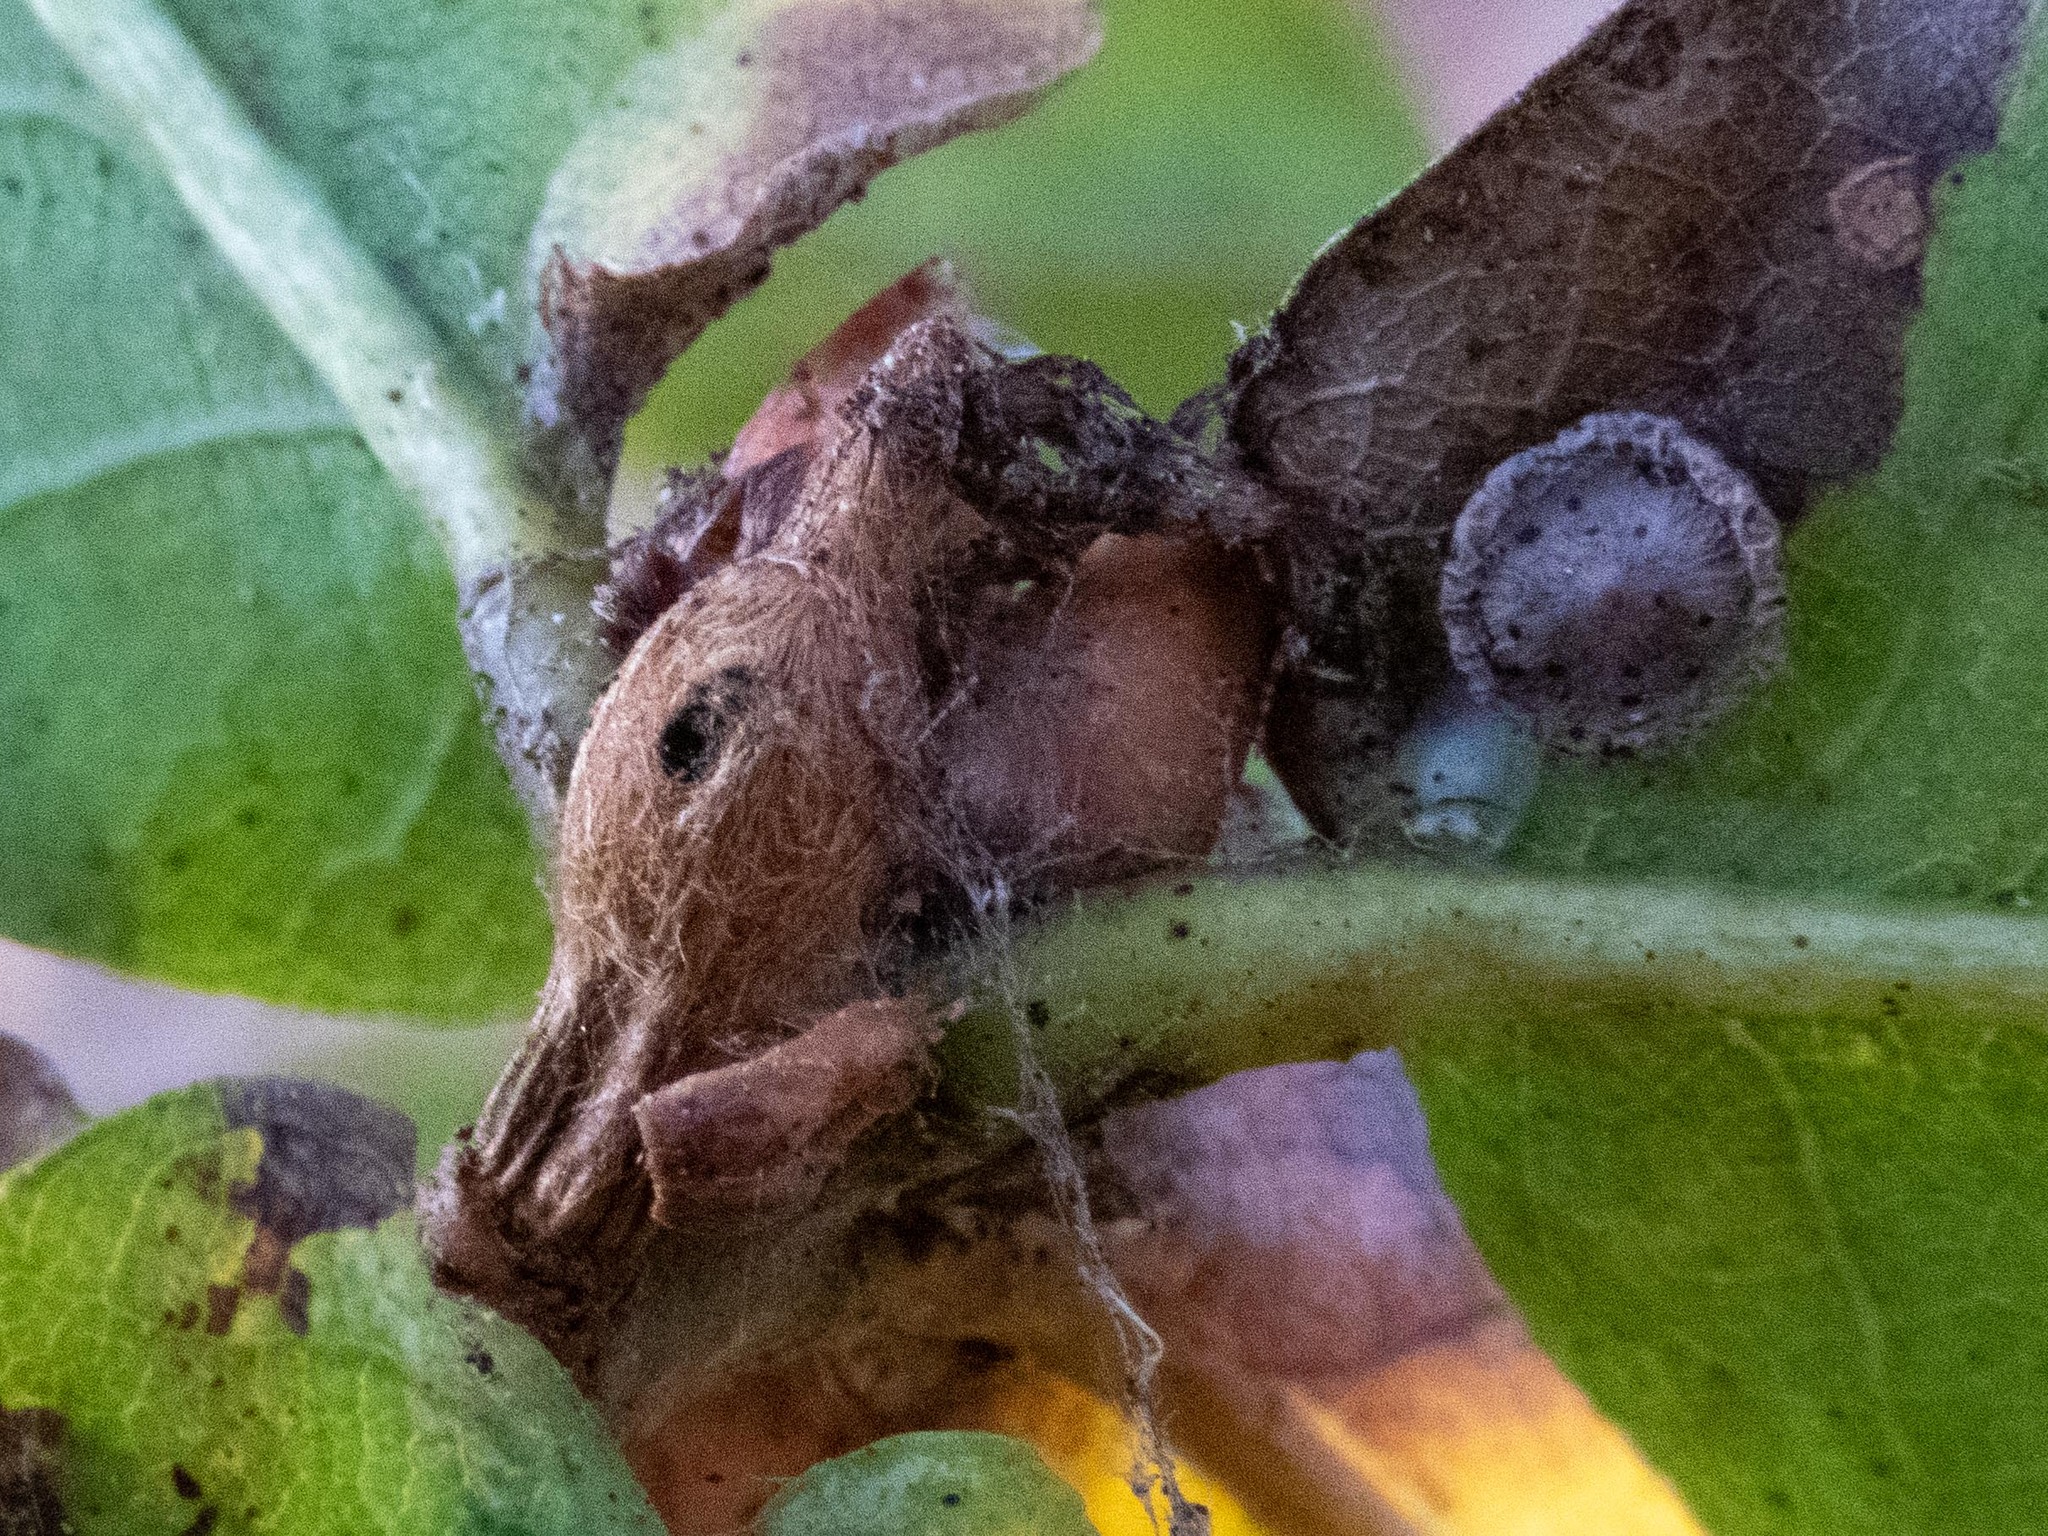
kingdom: Animalia
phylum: Arthropoda
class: Insecta
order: Hymenoptera
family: Cynipidae
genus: Andricus
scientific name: Andricus solitarius
